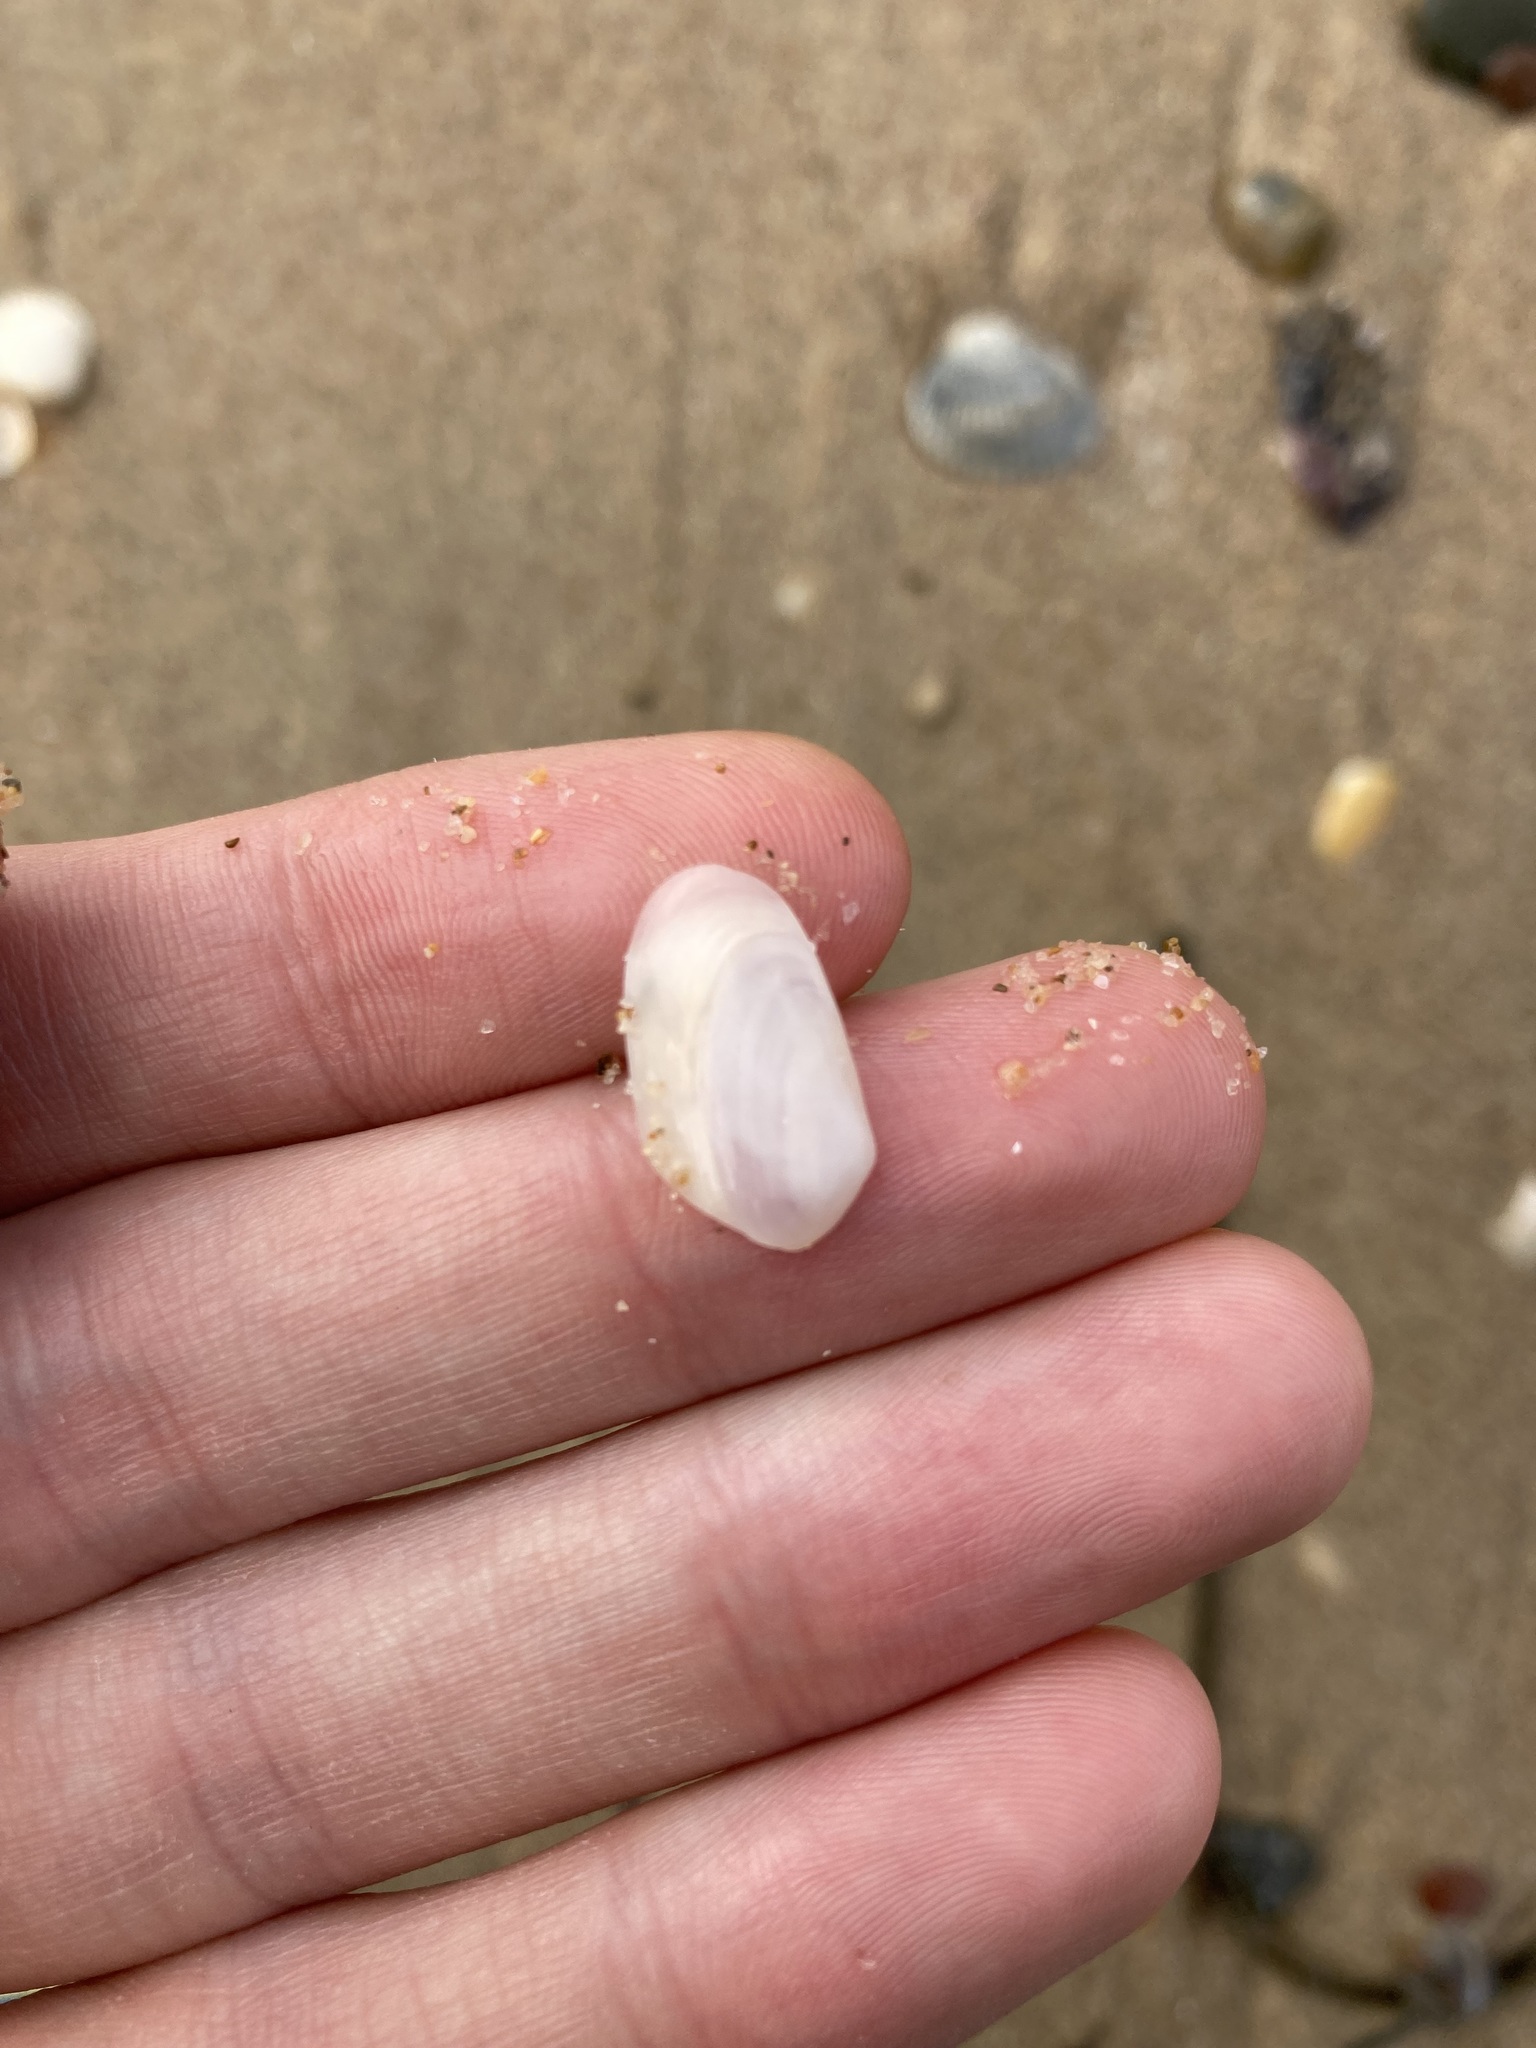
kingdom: Animalia
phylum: Mollusca
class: Bivalvia
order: Venerida
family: Mesodesmatidae
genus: Paphies
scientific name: Paphies angusta
